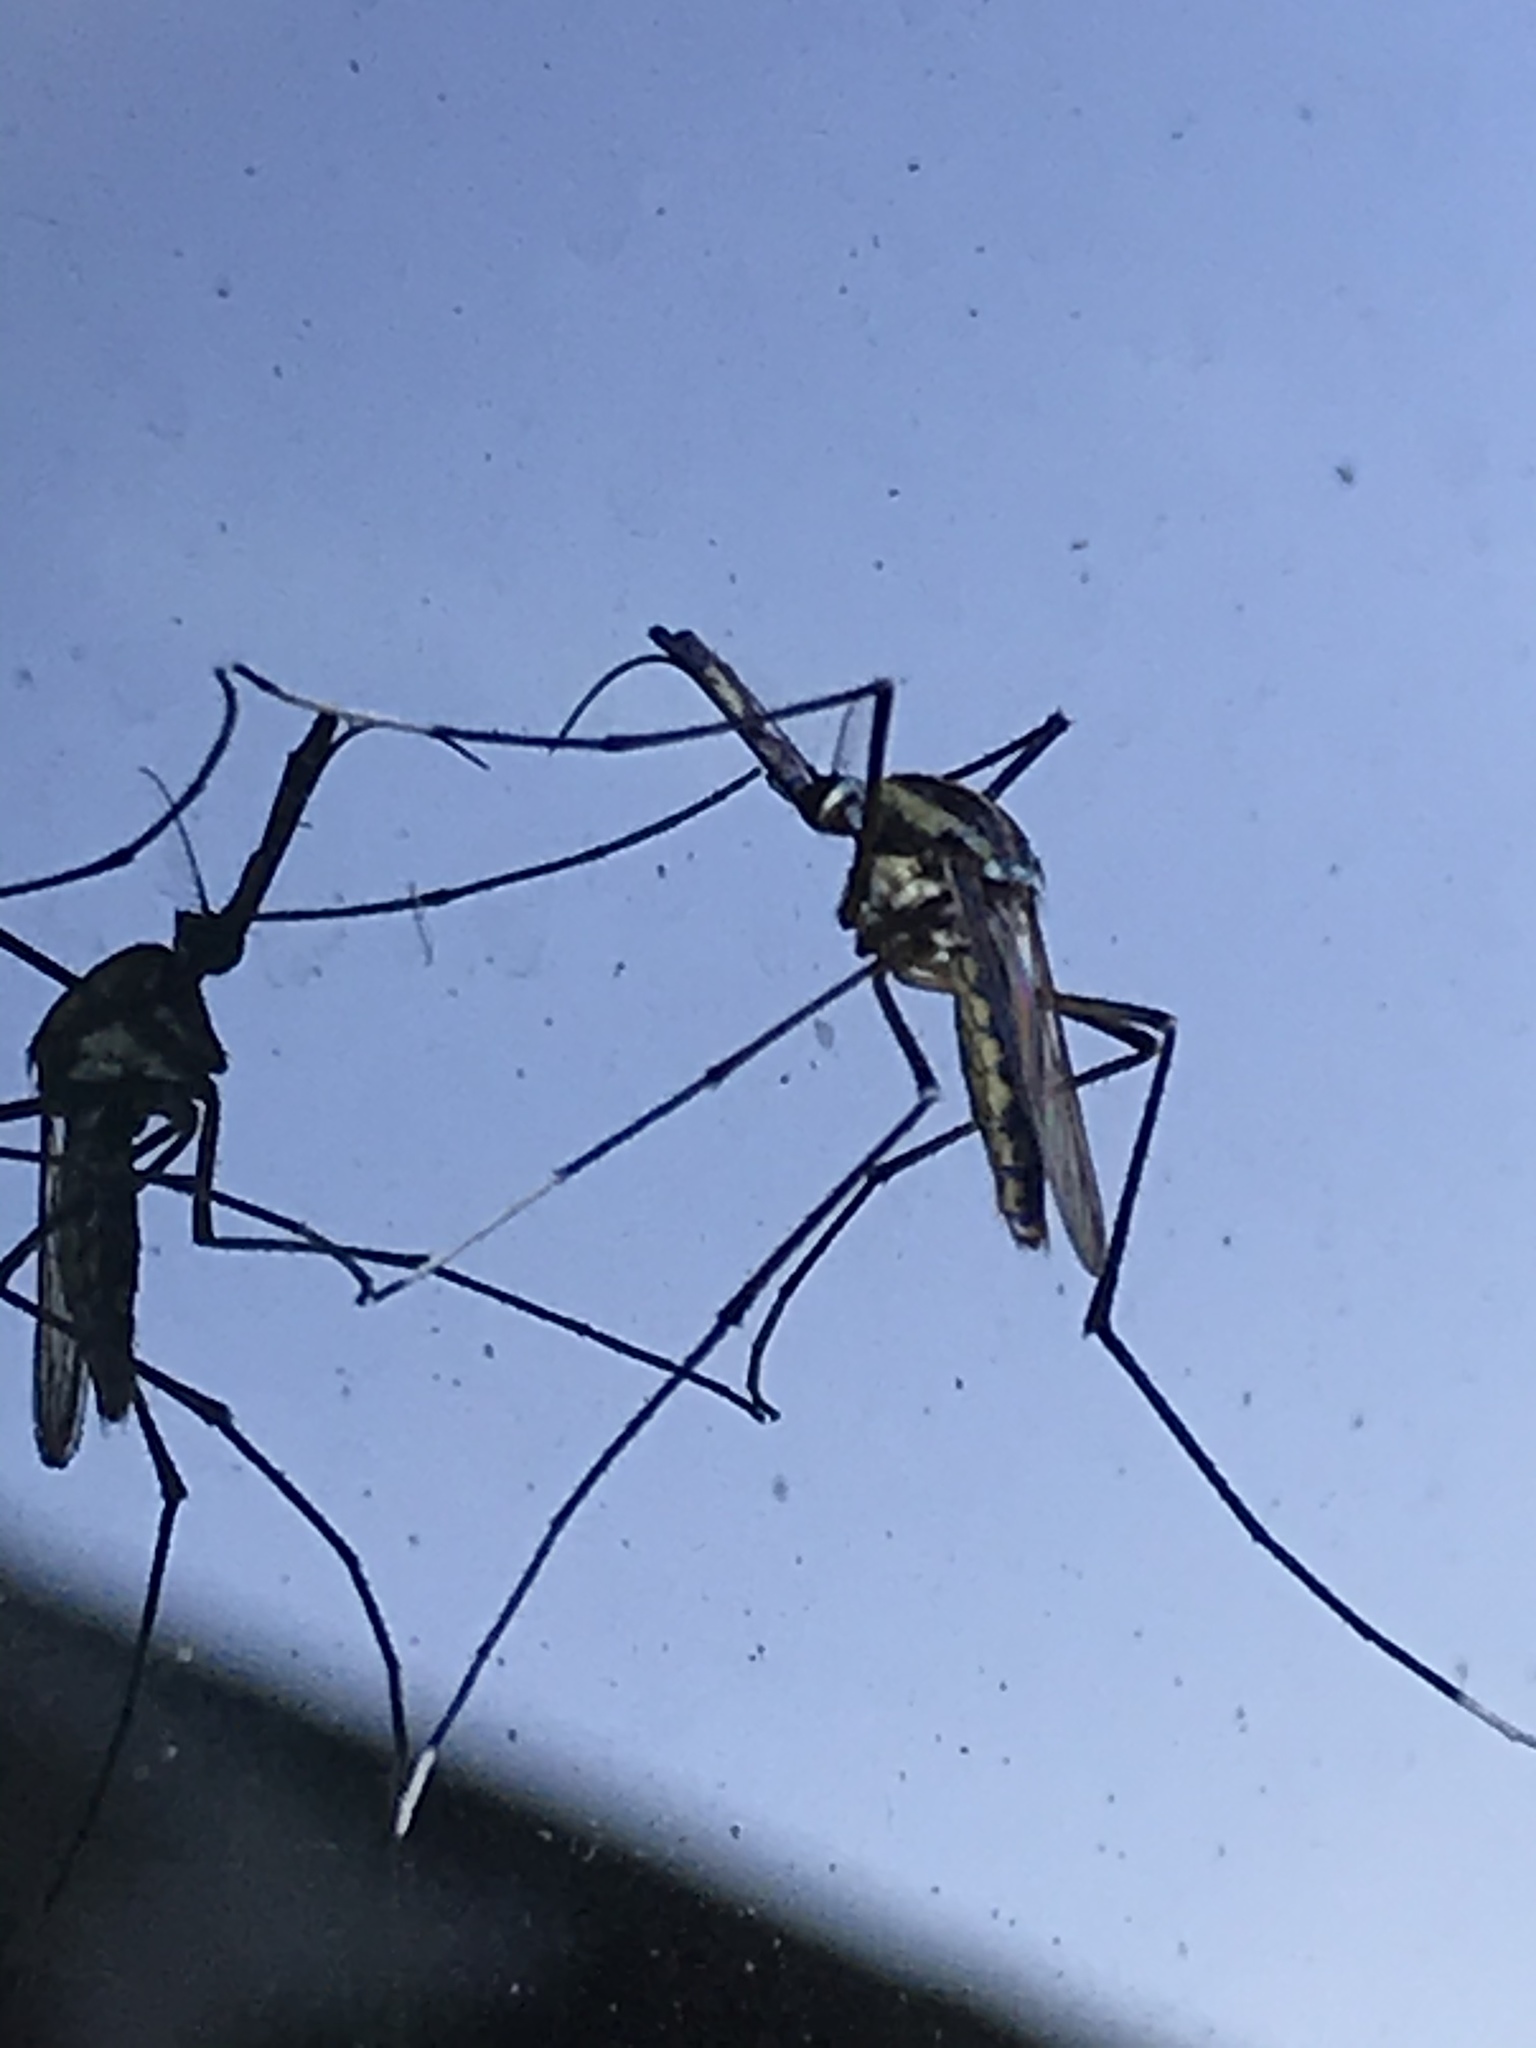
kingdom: Animalia
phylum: Arthropoda
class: Insecta
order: Diptera
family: Culicidae
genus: Toxorhynchites
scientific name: Toxorhynchites rutilus
